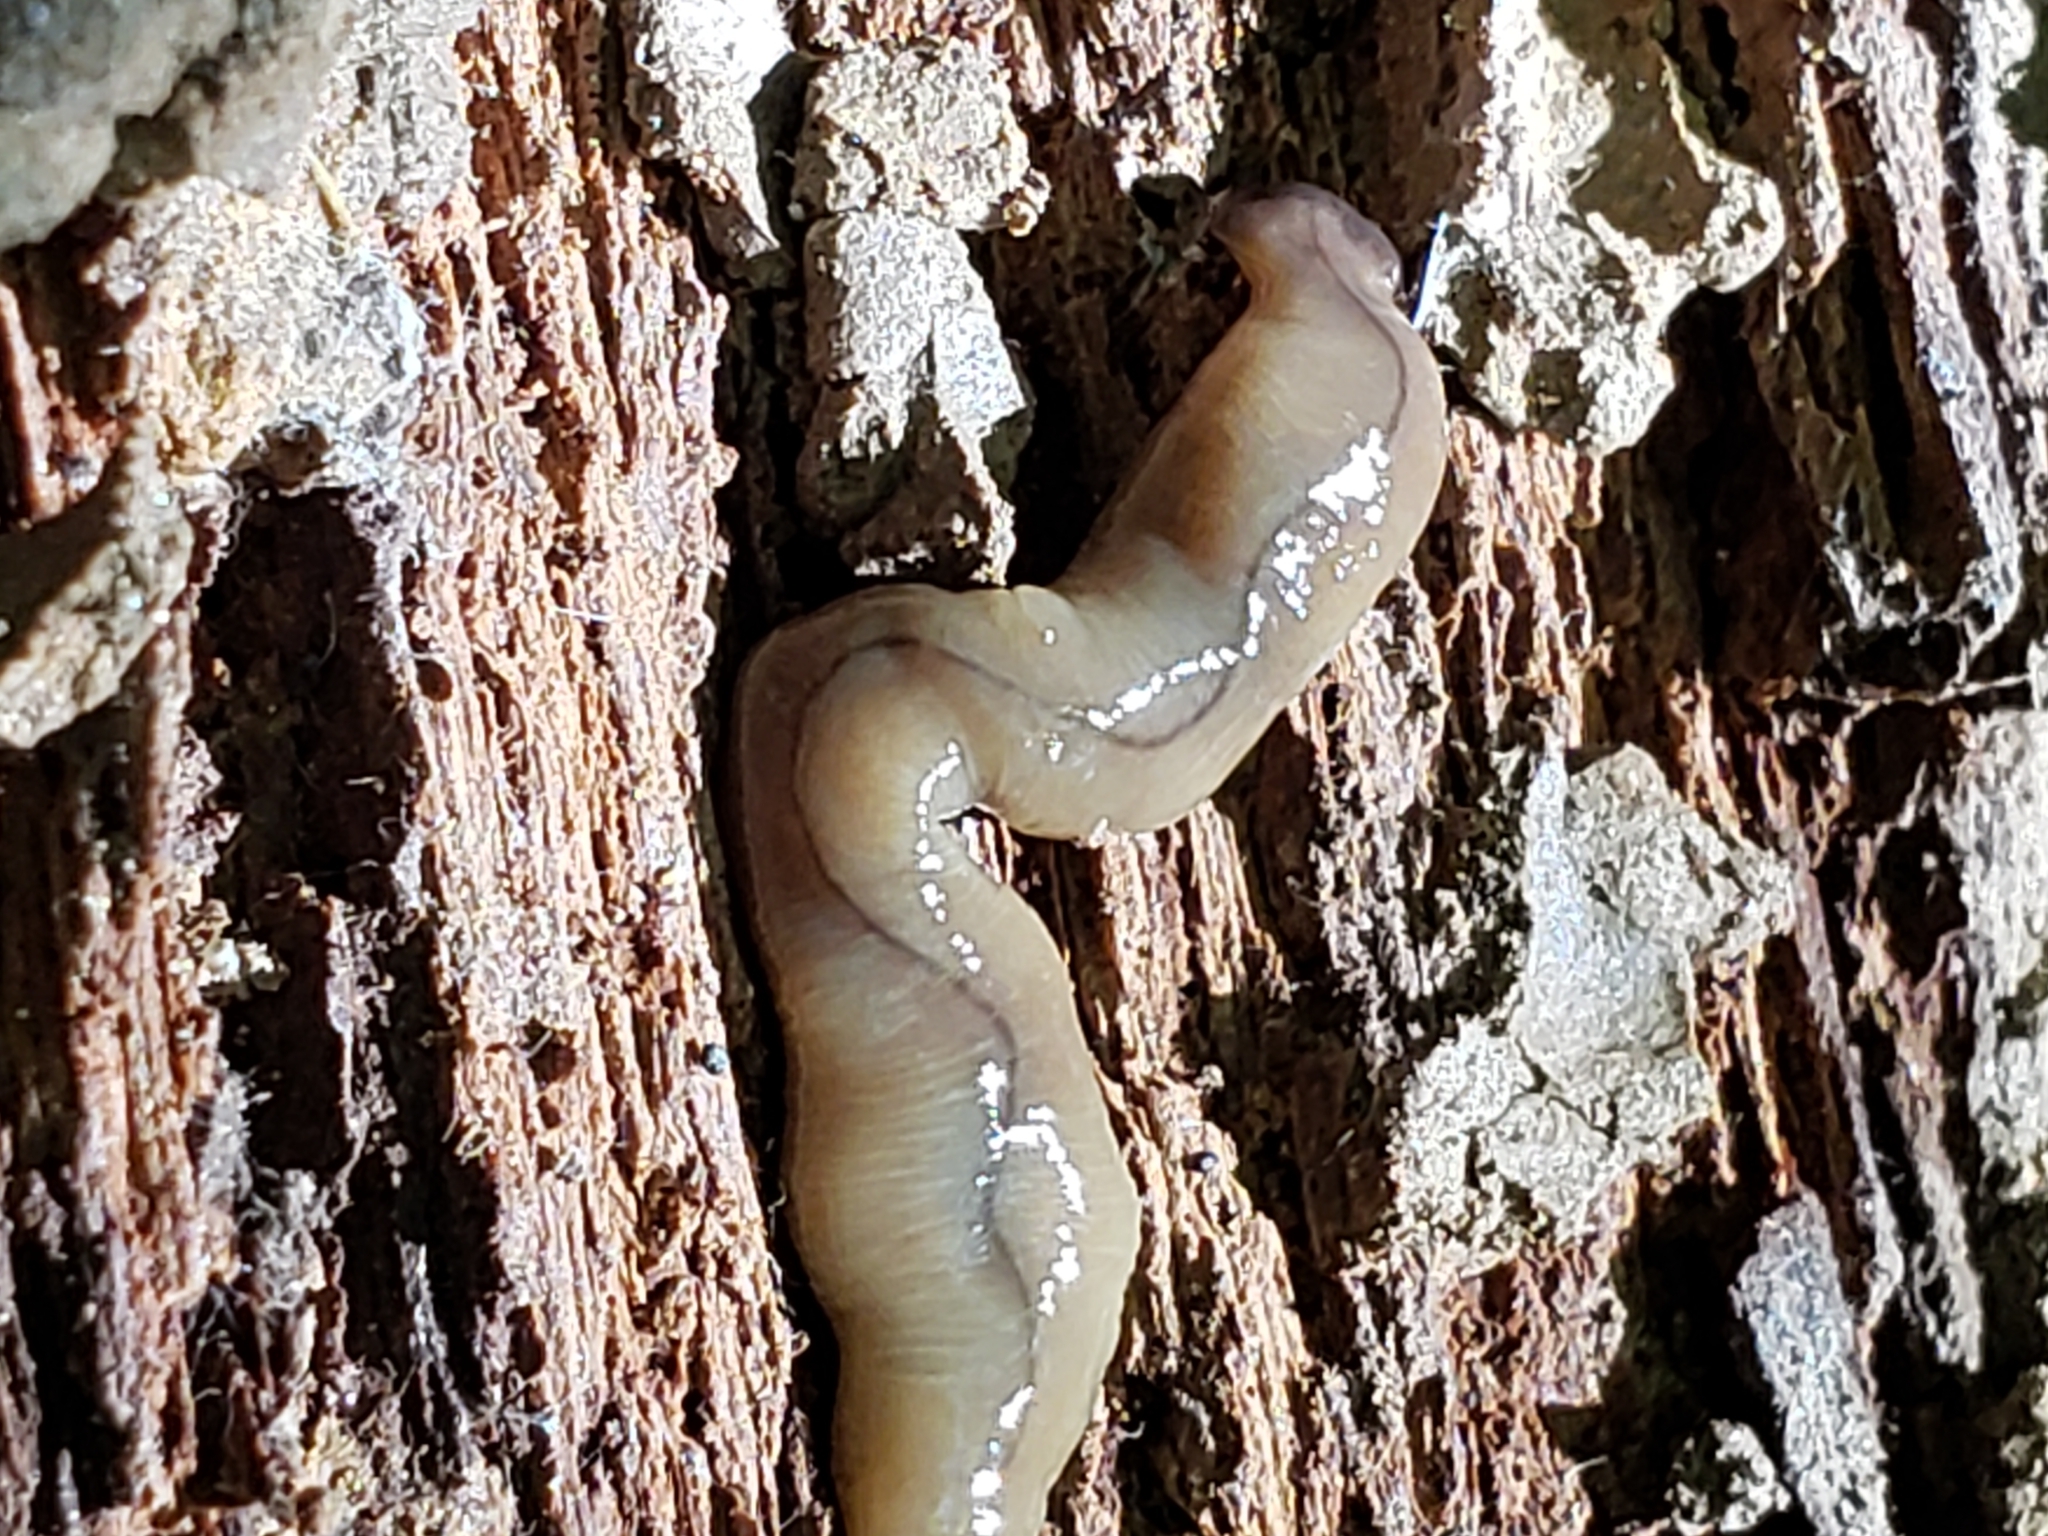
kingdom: Animalia
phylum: Platyhelminthes
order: Tricladida
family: Geoplanidae
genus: Bipalium
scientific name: Bipalium adventitium
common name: Land planarian
